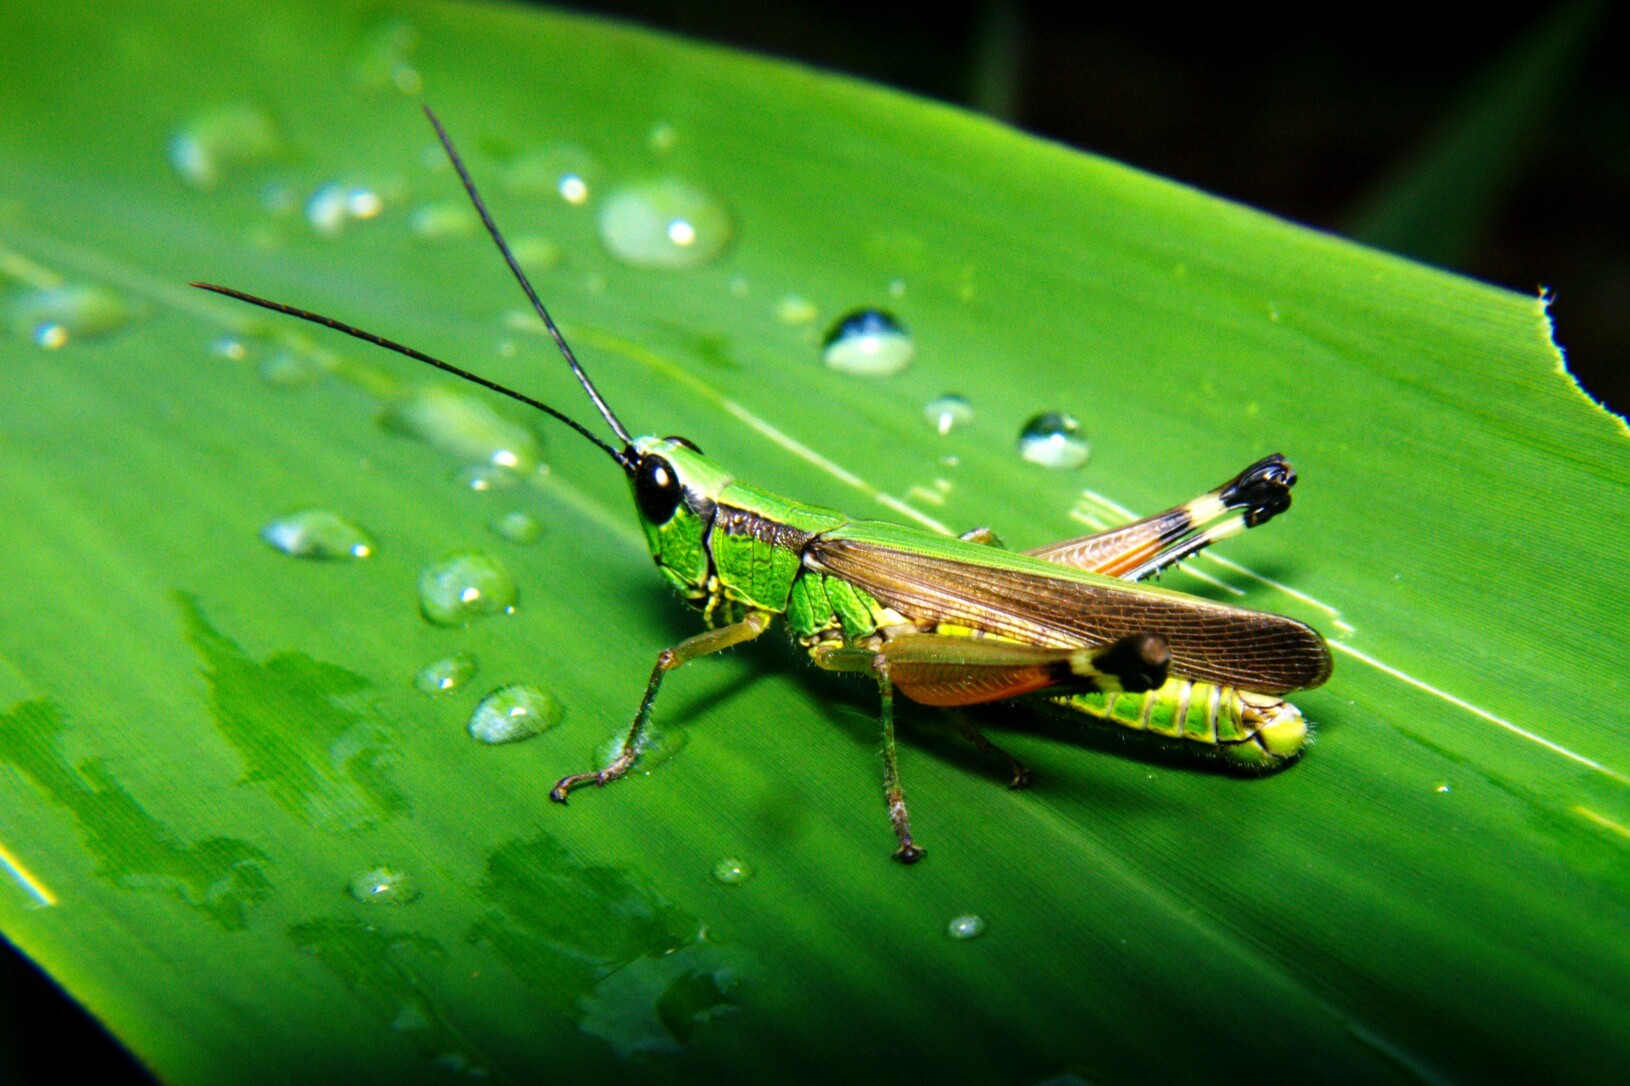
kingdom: Animalia
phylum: Arthropoda
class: Insecta
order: Orthoptera
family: Acrididae
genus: Ceracris
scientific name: Ceracris nigricornis
